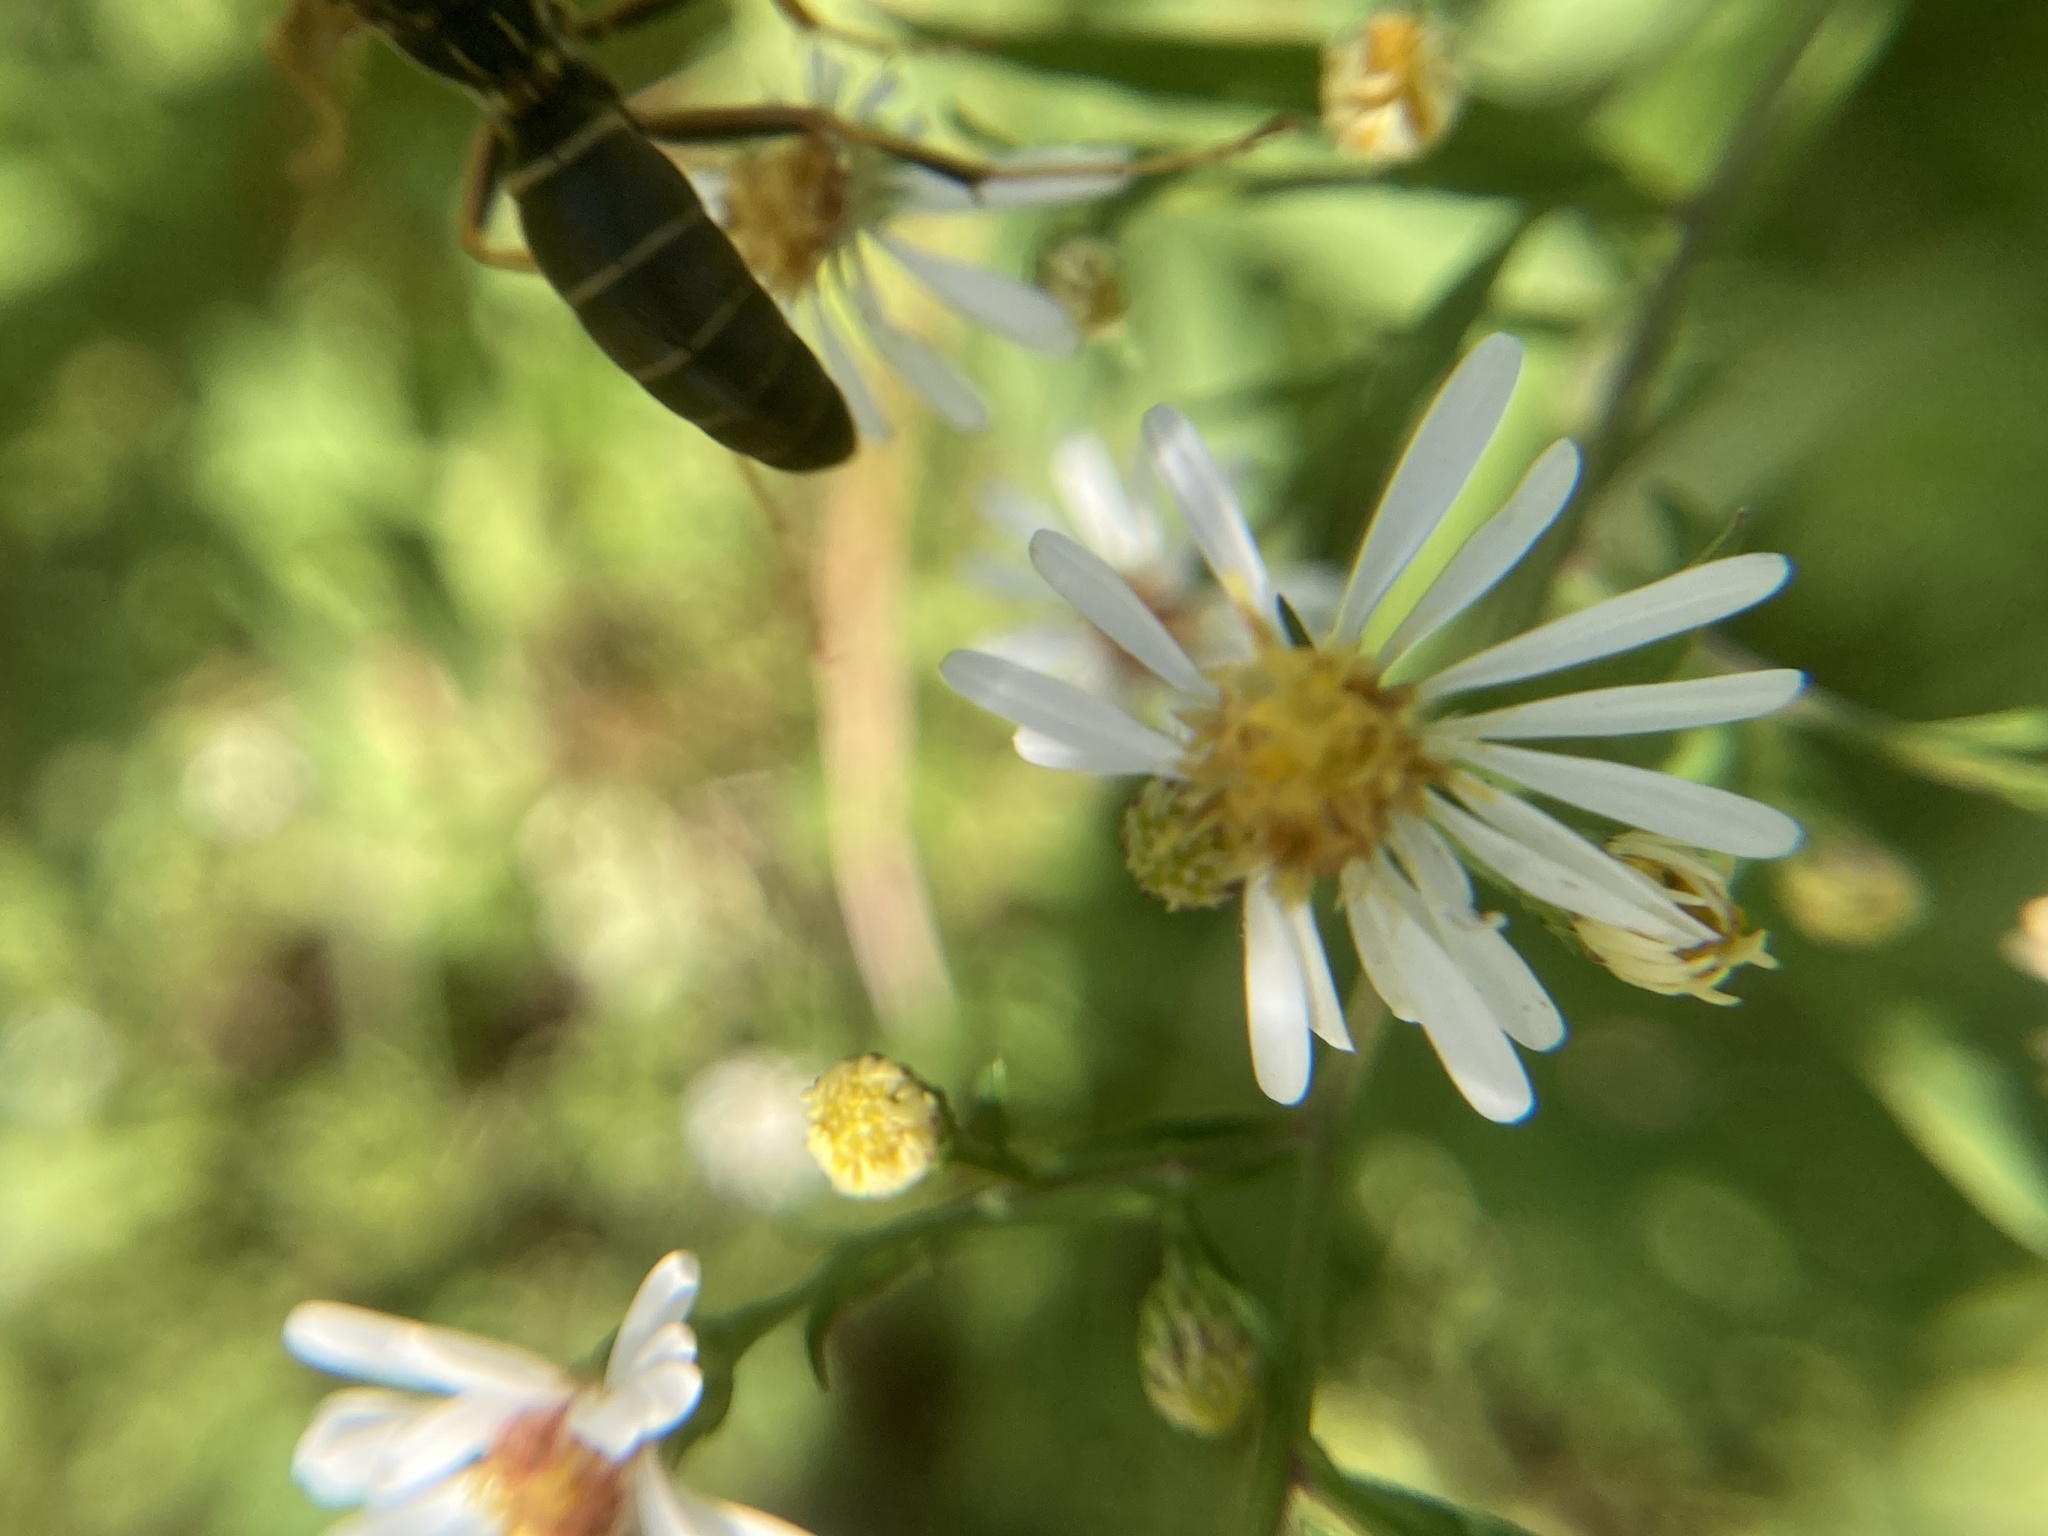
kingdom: Animalia
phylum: Arthropoda
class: Insecta
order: Hymenoptera
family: Eumenidae
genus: Polistes
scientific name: Polistes fuscatus
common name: Dark paper wasp
